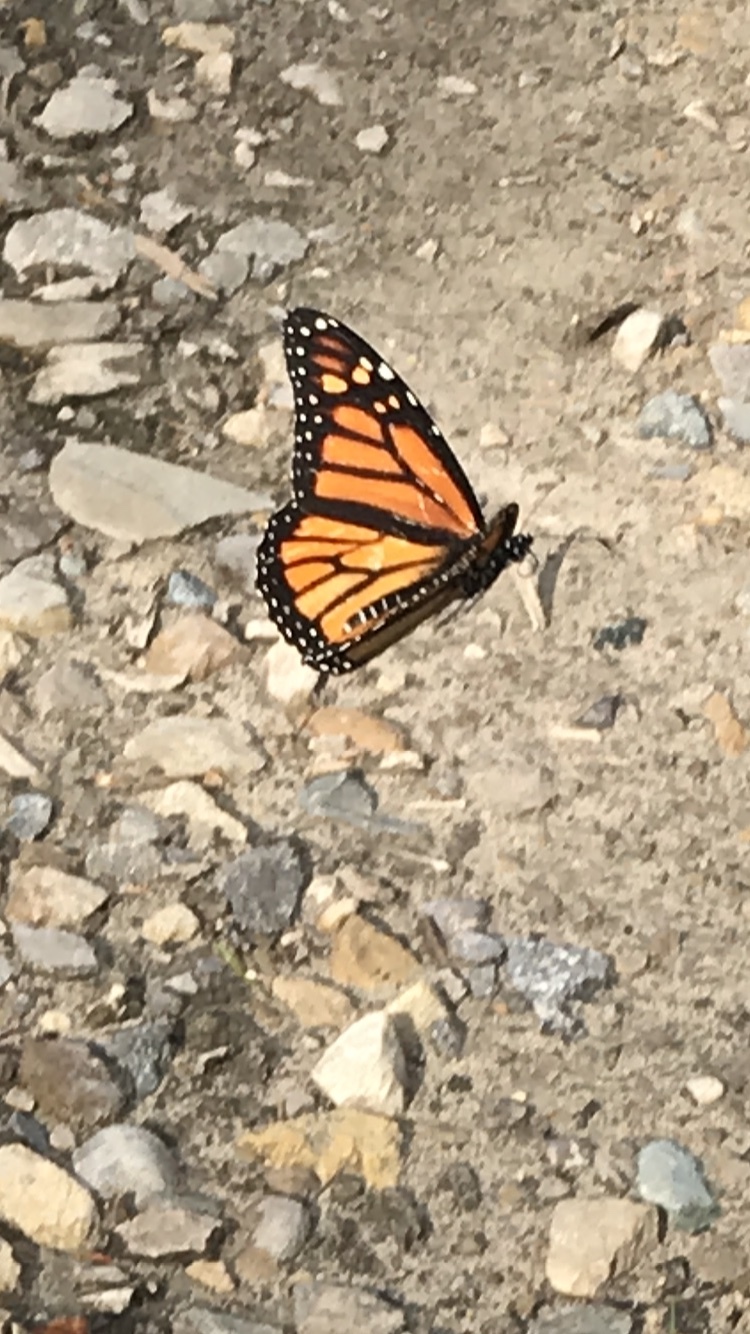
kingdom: Animalia
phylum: Arthropoda
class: Insecta
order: Lepidoptera
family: Nymphalidae
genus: Danaus
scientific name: Danaus plexippus
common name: Monarch
